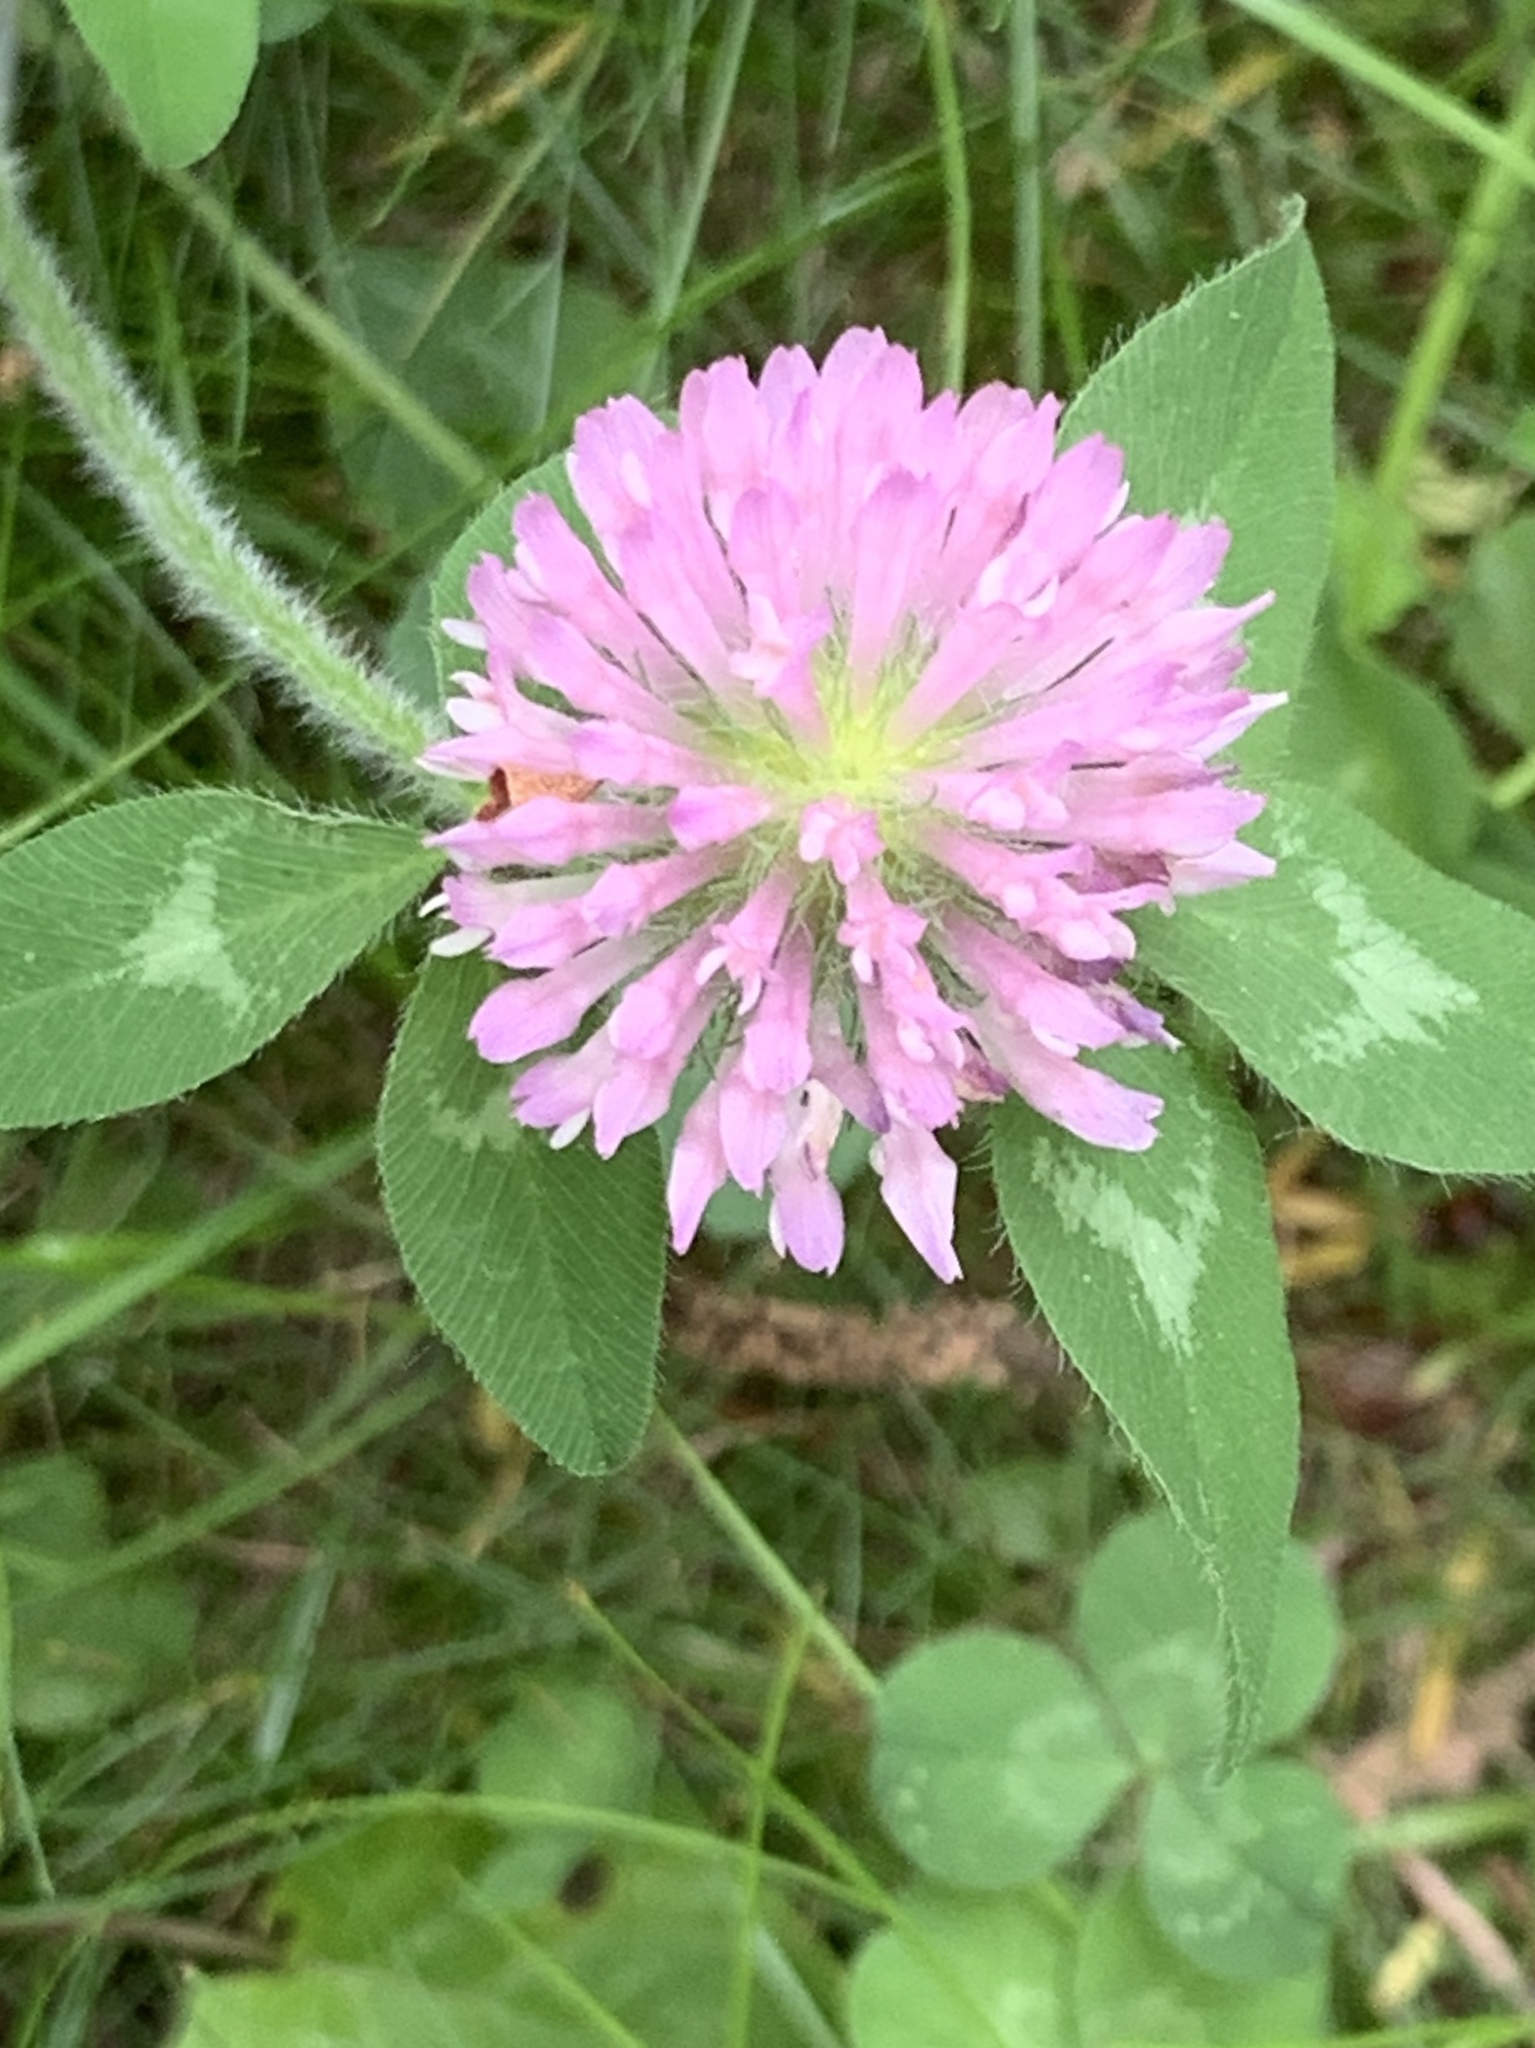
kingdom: Plantae
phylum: Tracheophyta
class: Magnoliopsida
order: Fabales
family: Fabaceae
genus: Trifolium
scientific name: Trifolium pratense
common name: Red clover
